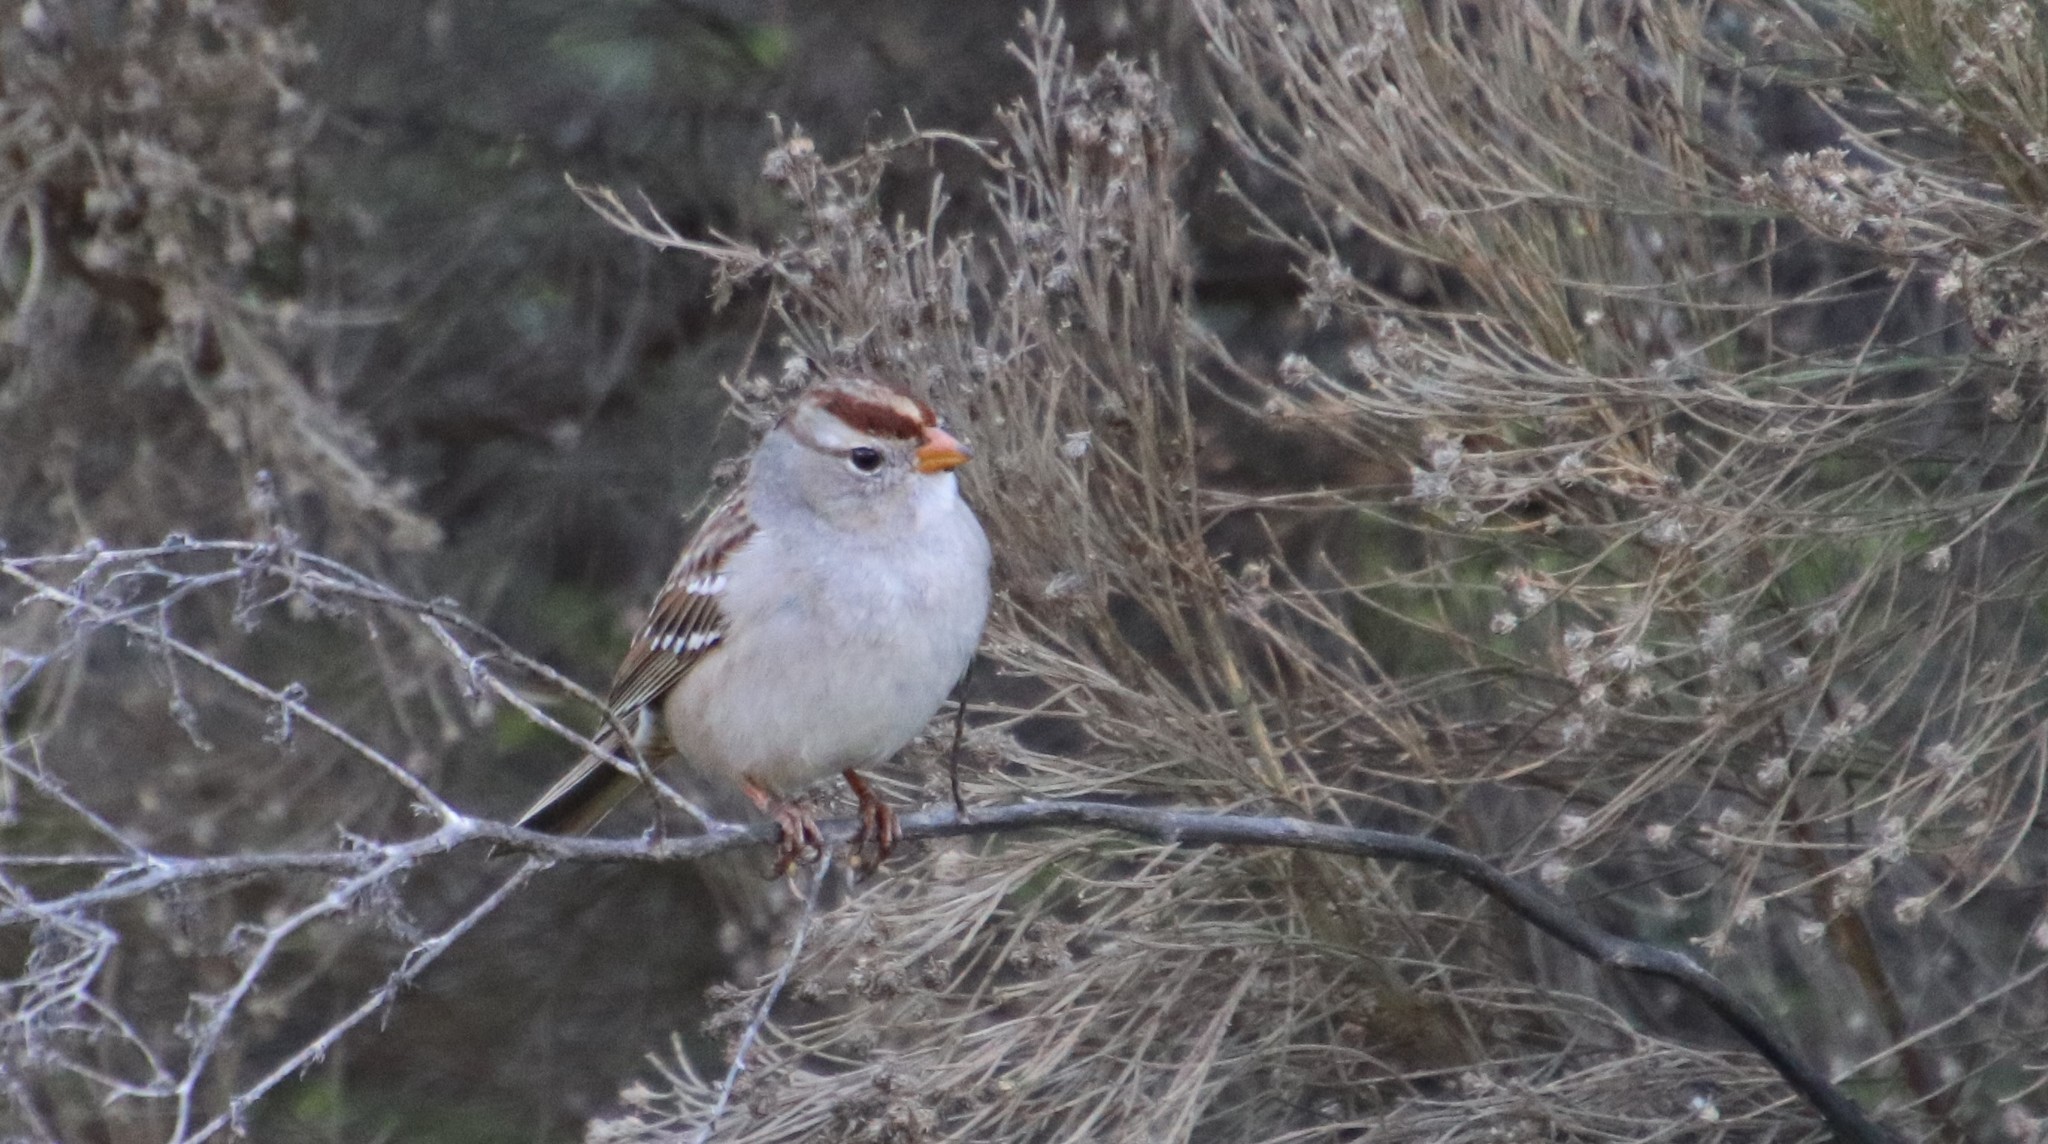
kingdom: Animalia
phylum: Chordata
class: Aves
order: Passeriformes
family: Passerellidae
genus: Zonotrichia
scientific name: Zonotrichia leucophrys
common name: White-crowned sparrow
